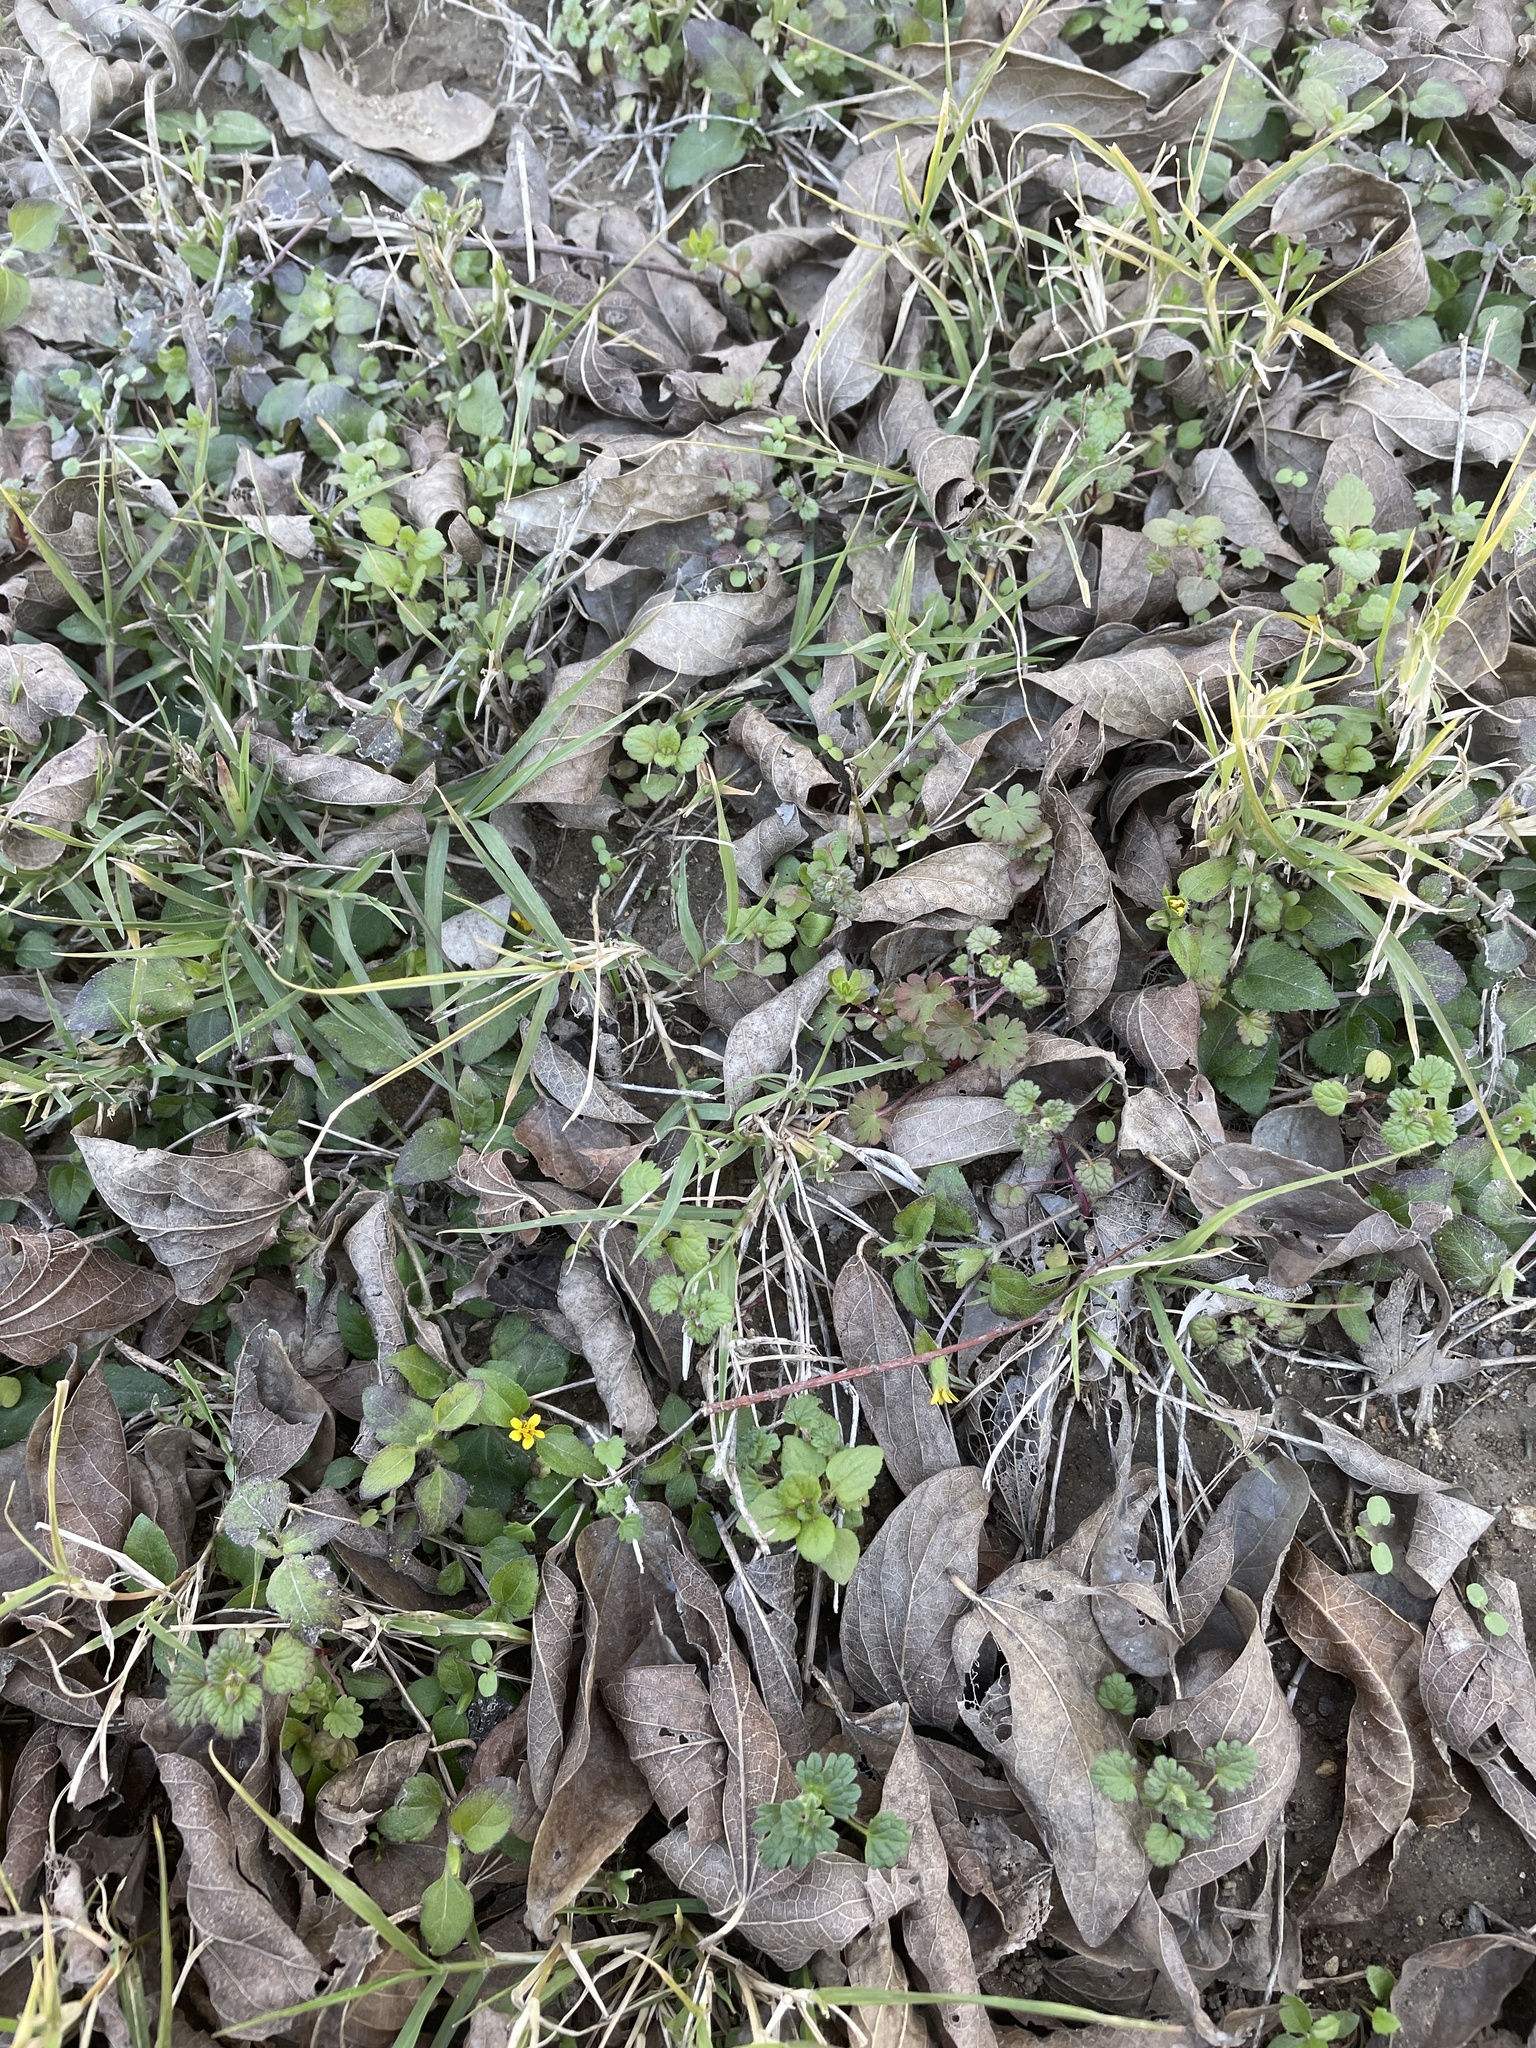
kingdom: Plantae
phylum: Tracheophyta
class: Magnoliopsida
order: Asterales
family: Asteraceae
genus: Calyptocarpus
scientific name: Calyptocarpus vialis
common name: Straggler daisy
